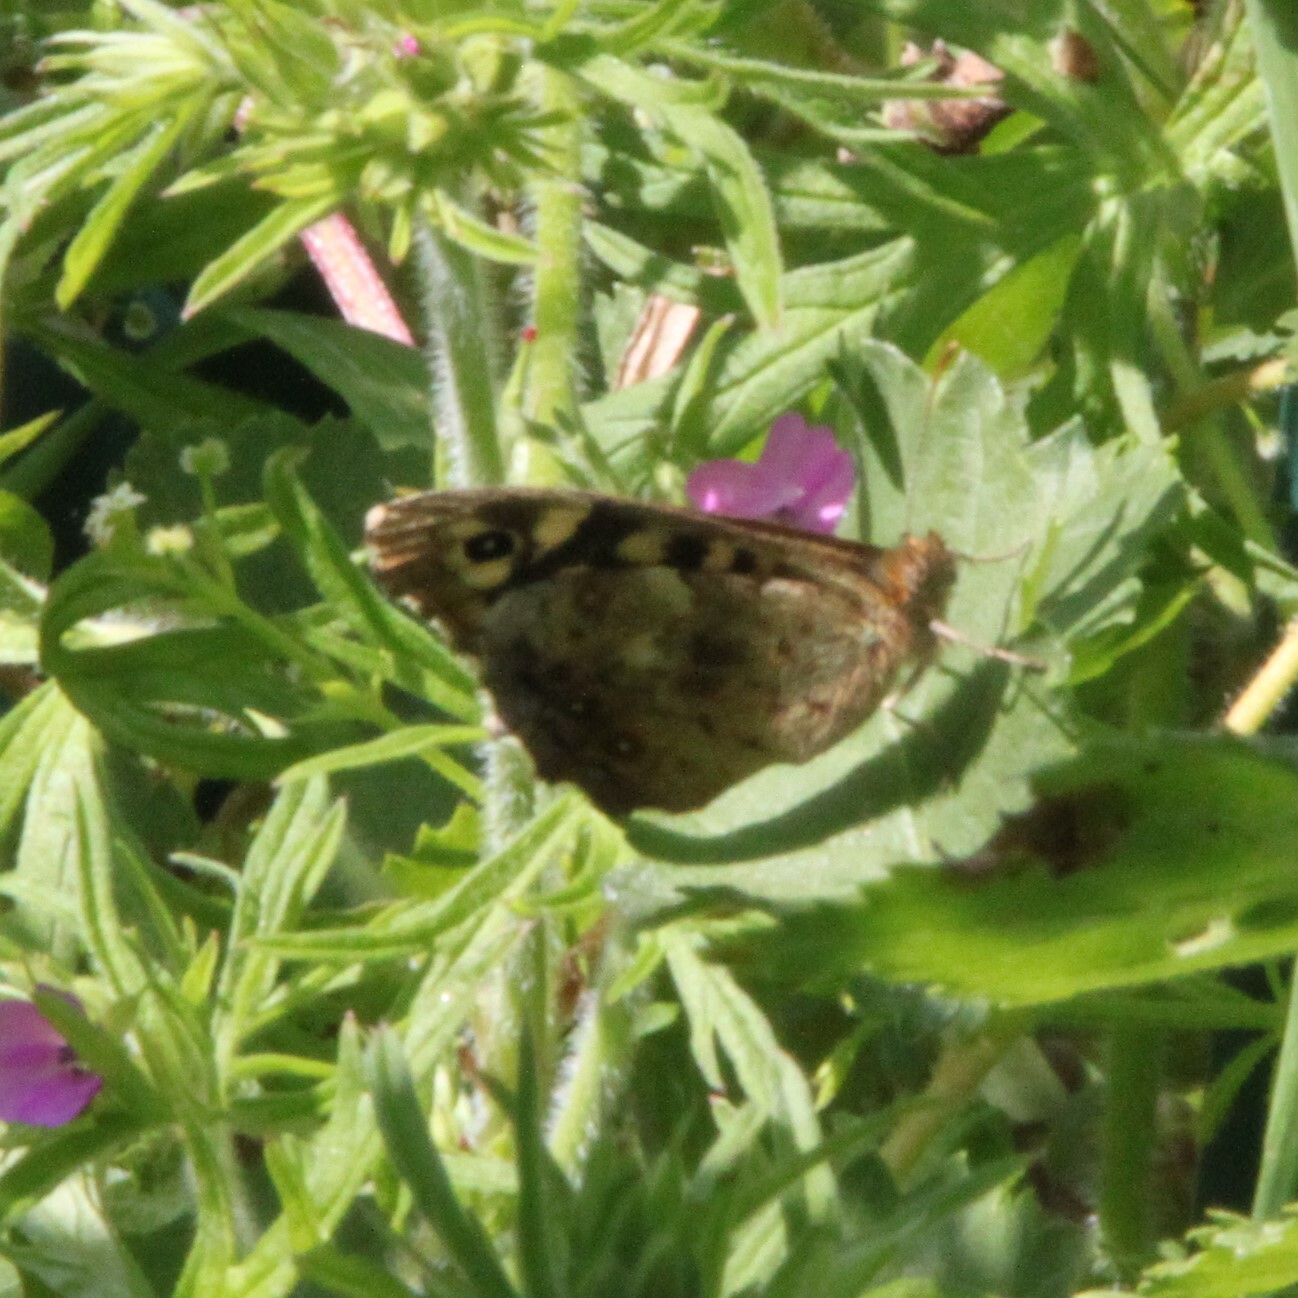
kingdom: Animalia
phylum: Arthropoda
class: Insecta
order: Lepidoptera
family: Nymphalidae
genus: Pararge
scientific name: Pararge aegeria
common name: Speckled wood
